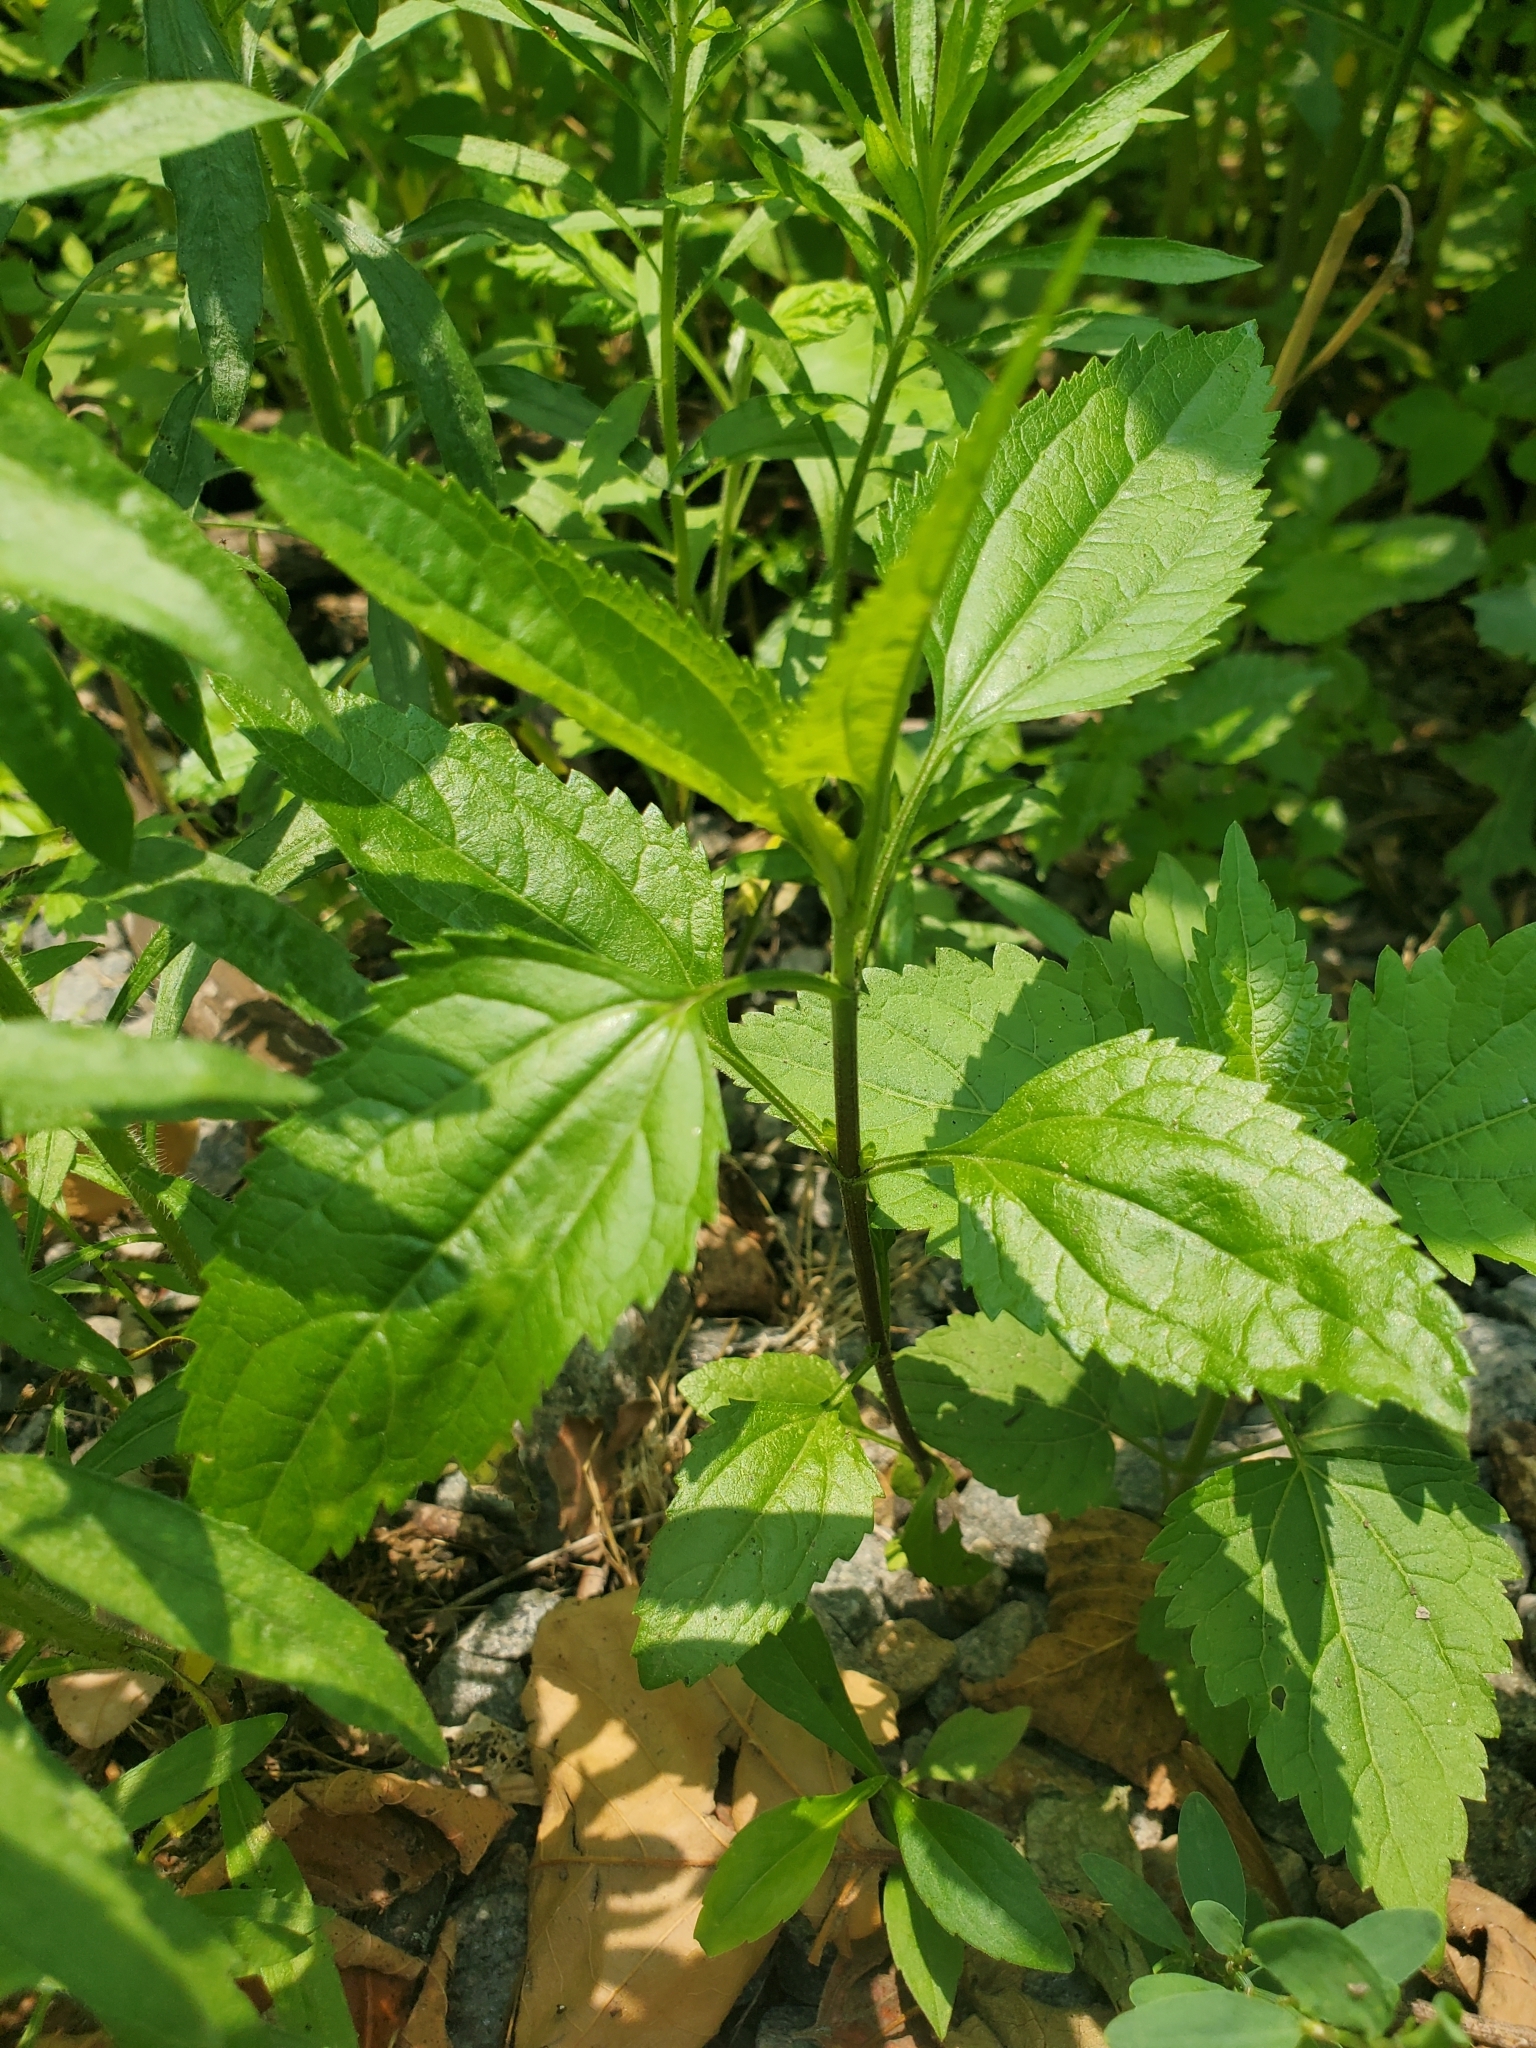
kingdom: Plantae
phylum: Tracheophyta
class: Magnoliopsida
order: Asterales
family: Asteraceae
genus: Eupatorium
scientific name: Eupatorium serotinum
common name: Late boneset
